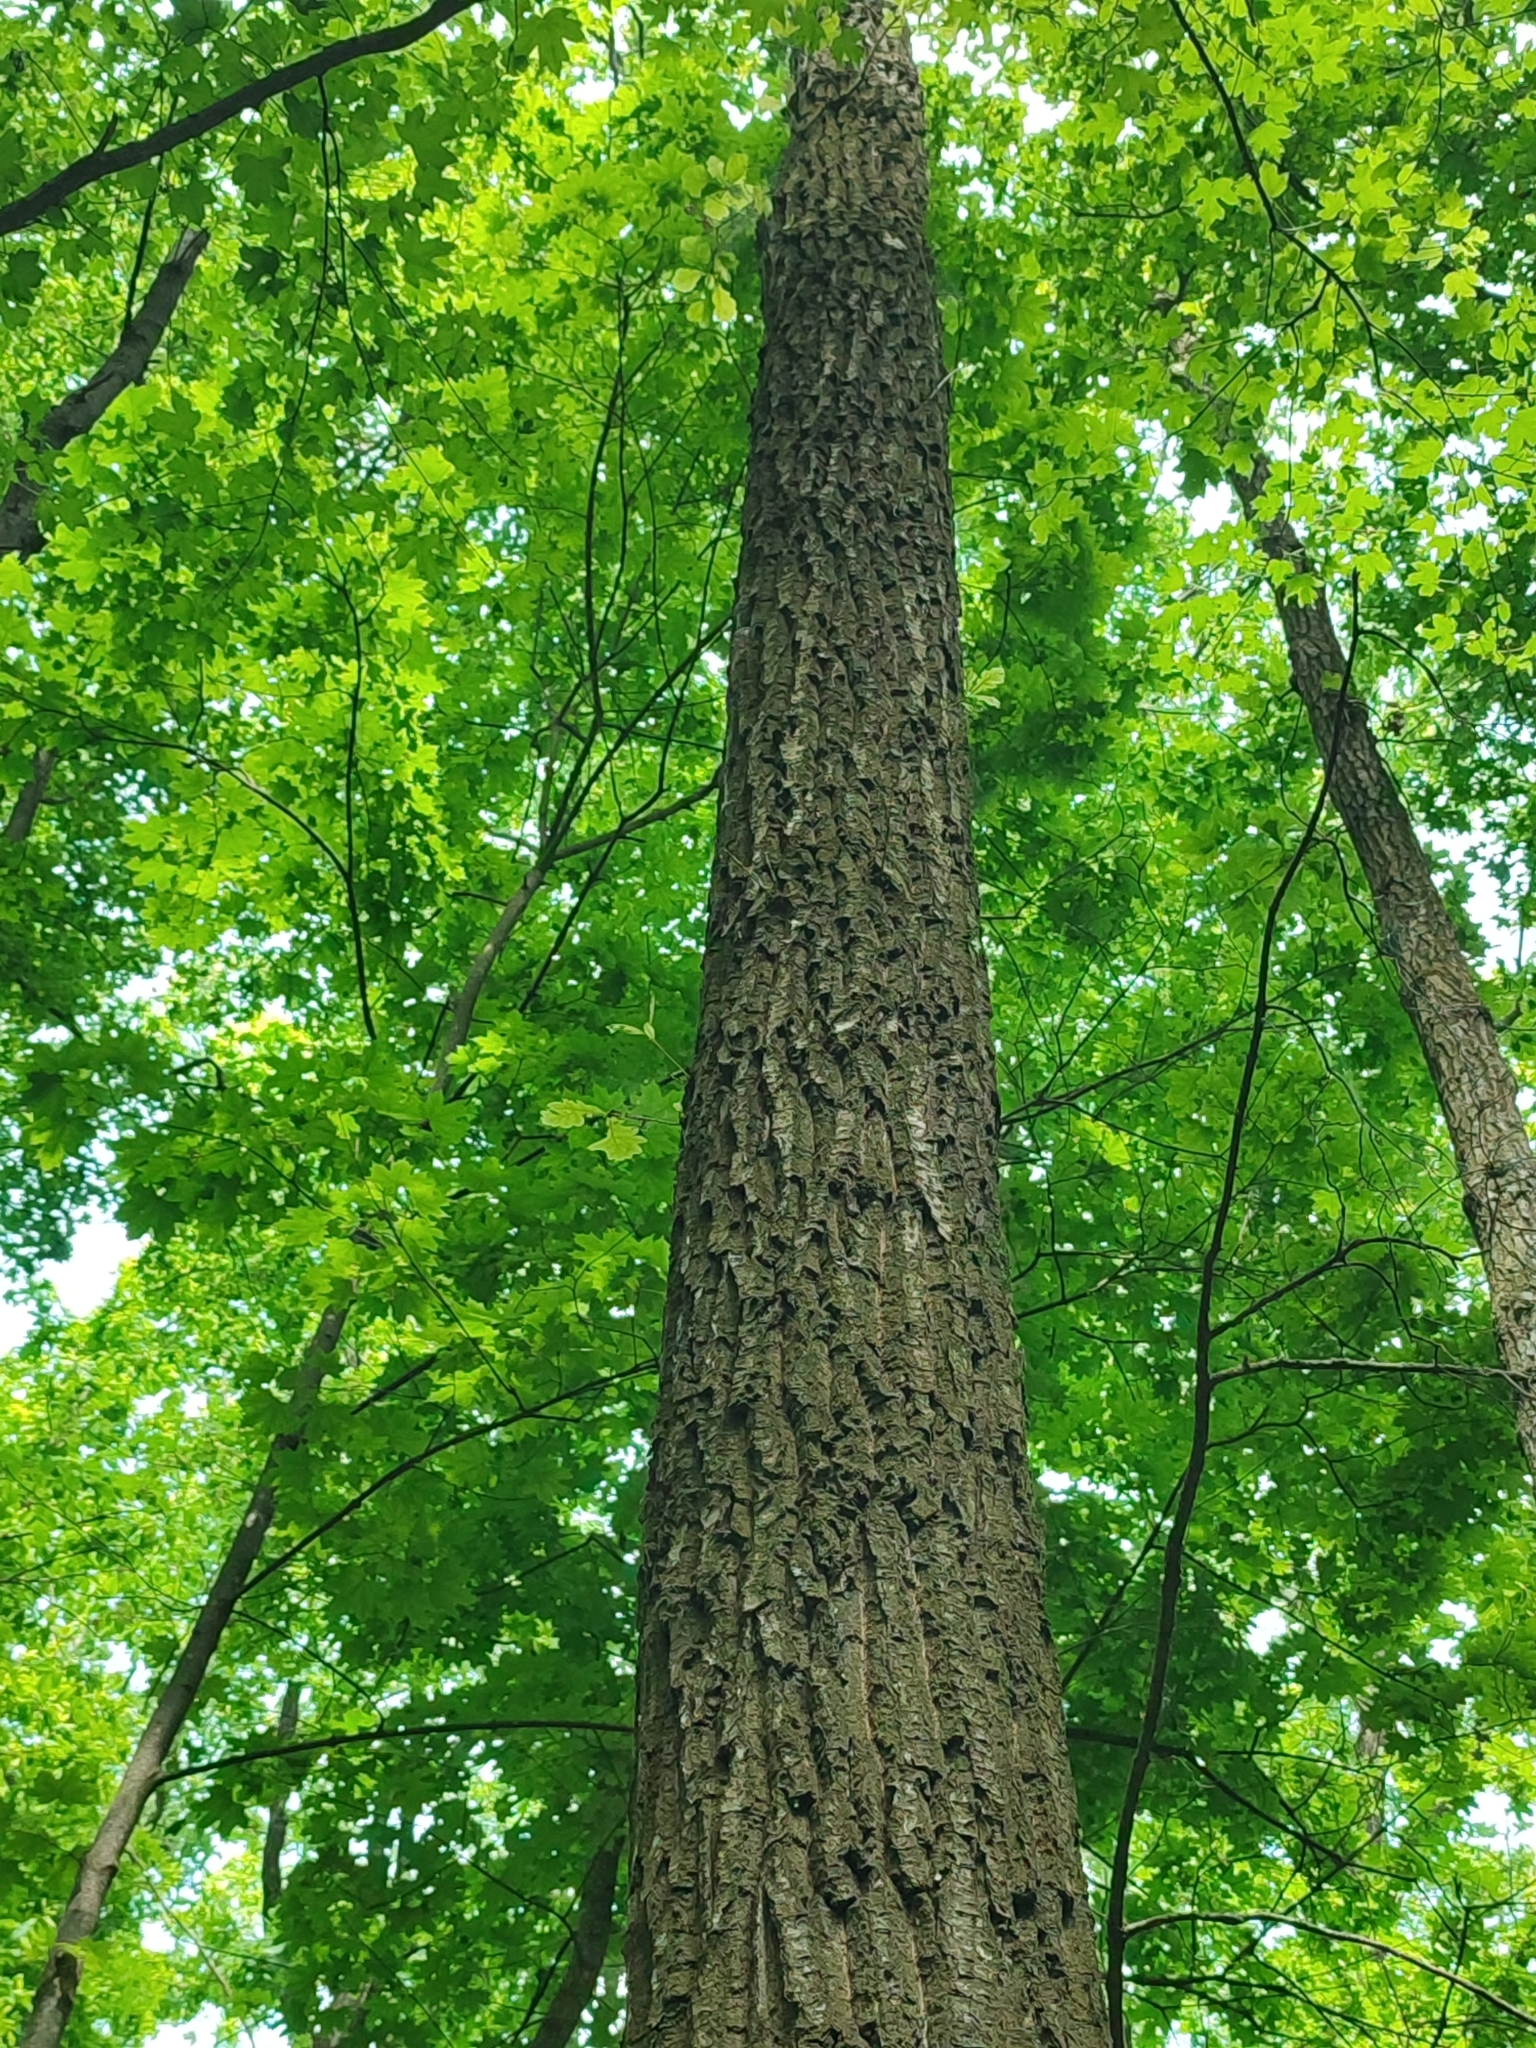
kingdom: Plantae
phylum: Tracheophyta
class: Magnoliopsida
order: Fagales
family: Fagaceae
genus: Quercus
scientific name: Quercus robur
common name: Pedunculate oak
